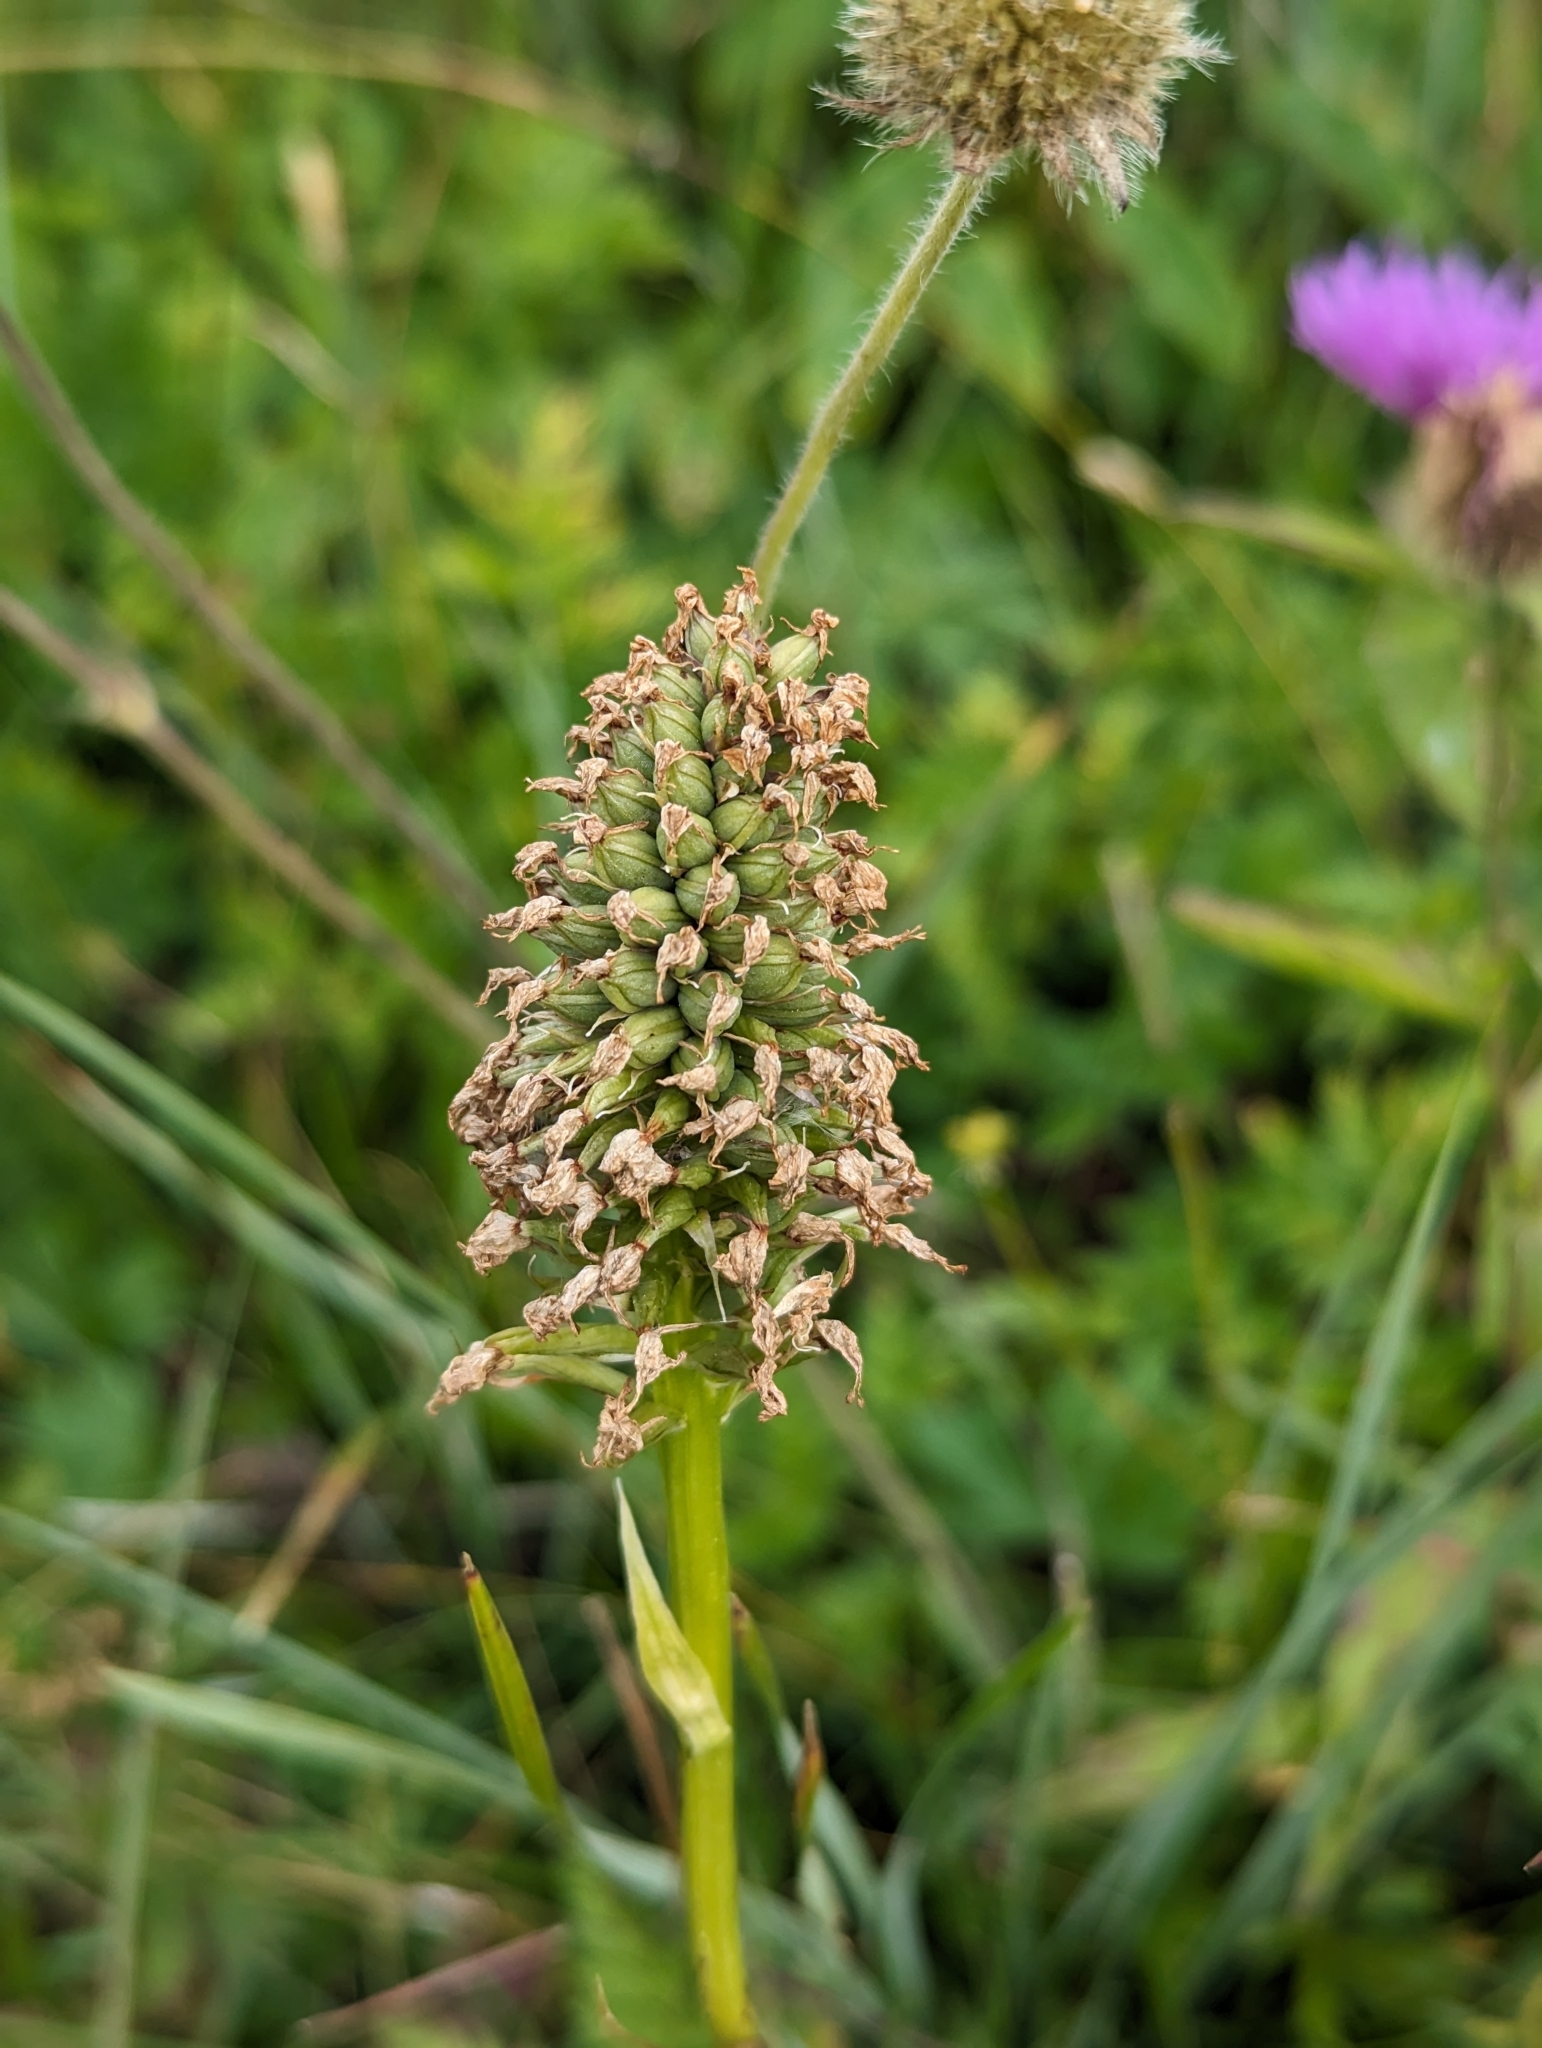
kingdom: Plantae
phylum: Tracheophyta
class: Liliopsida
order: Asparagales
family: Orchidaceae
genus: Traunsteinera
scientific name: Traunsteinera globosa
